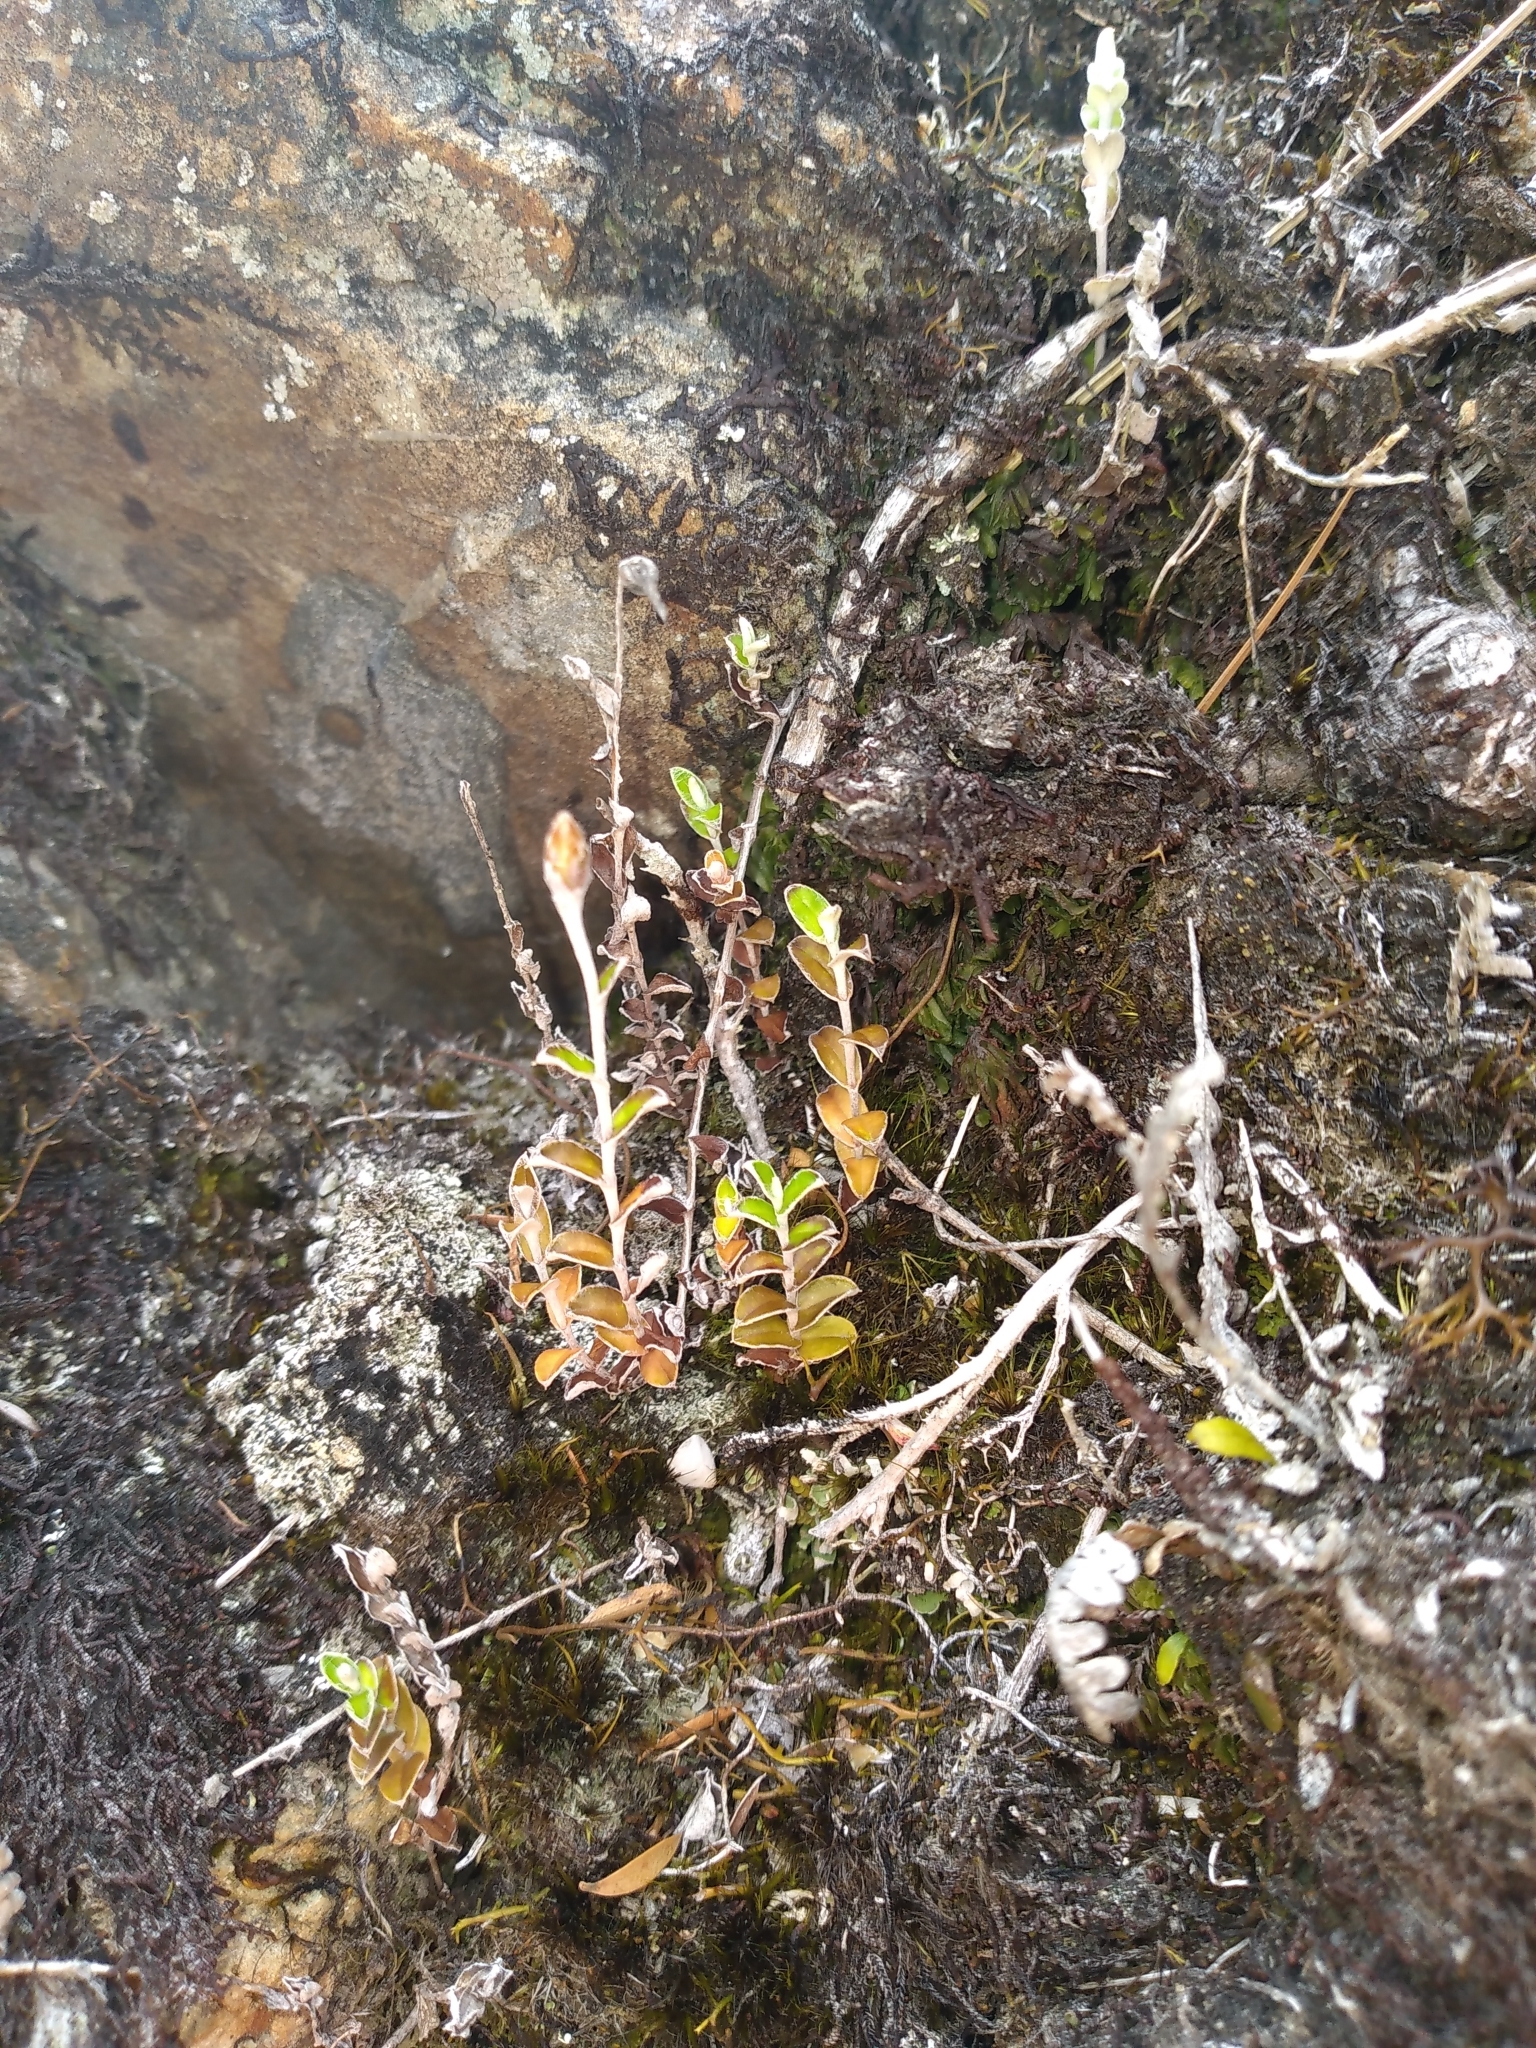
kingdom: Plantae
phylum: Tracheophyta
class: Magnoliopsida
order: Asterales
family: Asteraceae
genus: Helichrysum
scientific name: Helichrysum filicaule
